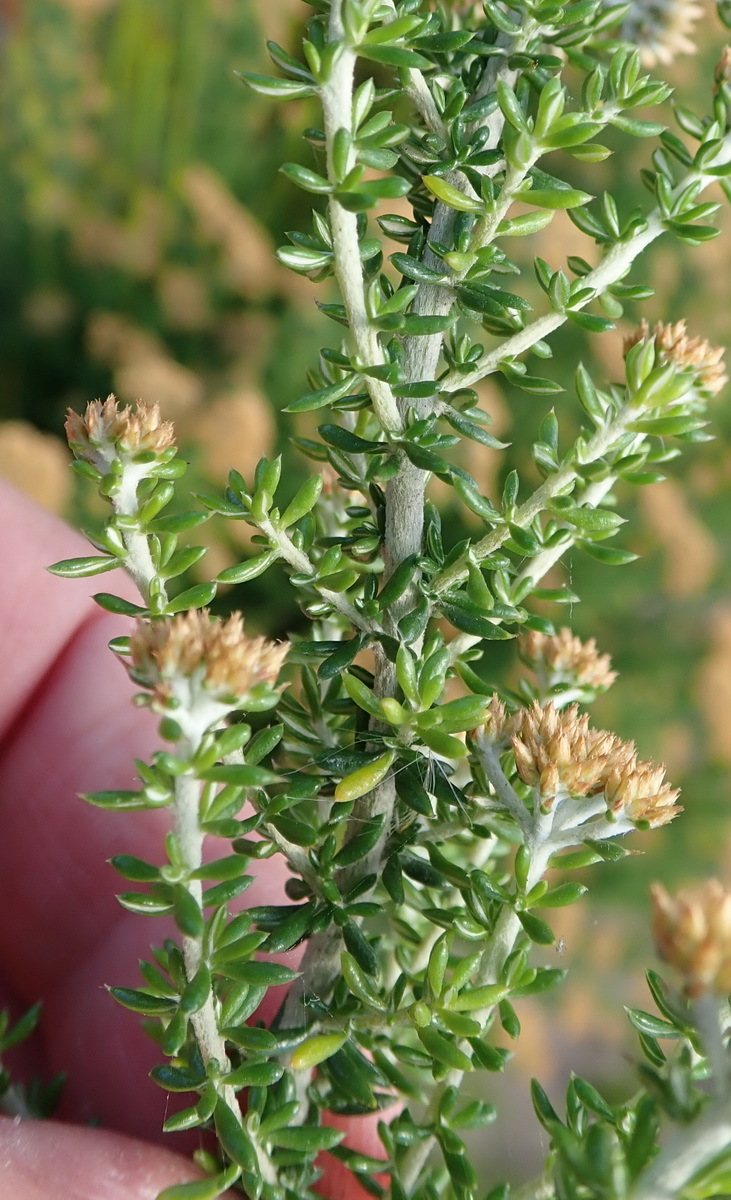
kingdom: Plantae
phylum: Tracheophyta
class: Magnoliopsida
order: Asterales
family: Asteraceae
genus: Metalasia
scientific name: Metalasia muricata
